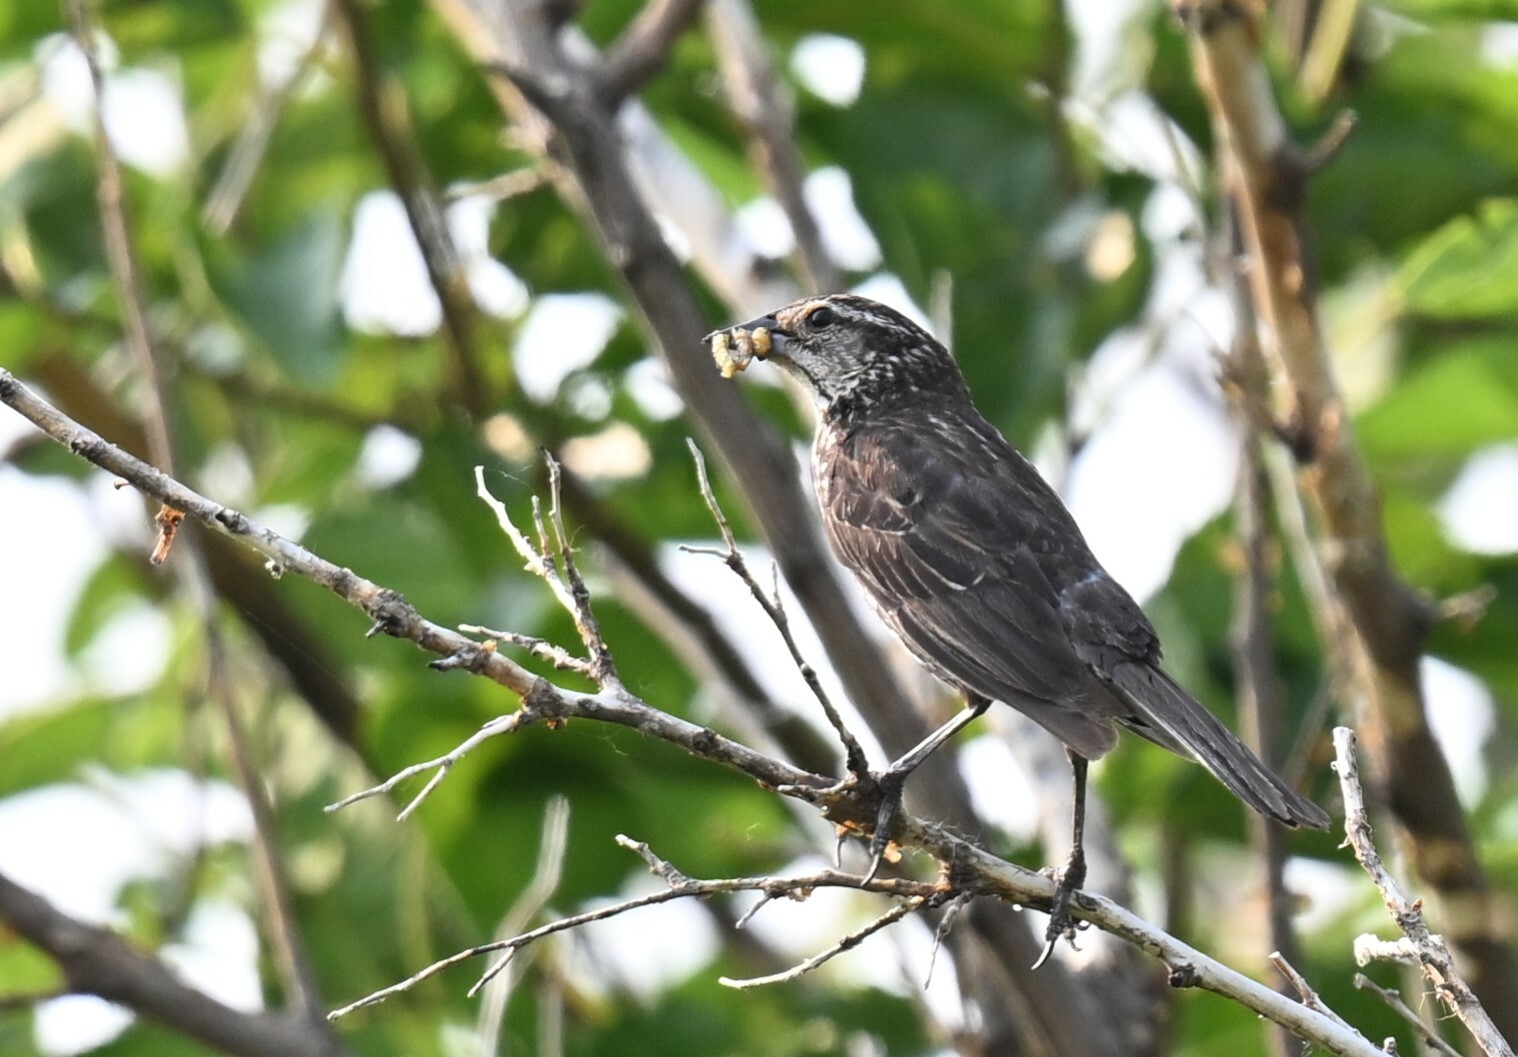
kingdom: Animalia
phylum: Chordata
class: Aves
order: Passeriformes
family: Icteridae
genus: Agelaius
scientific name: Agelaius phoeniceus
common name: Red-winged blackbird
